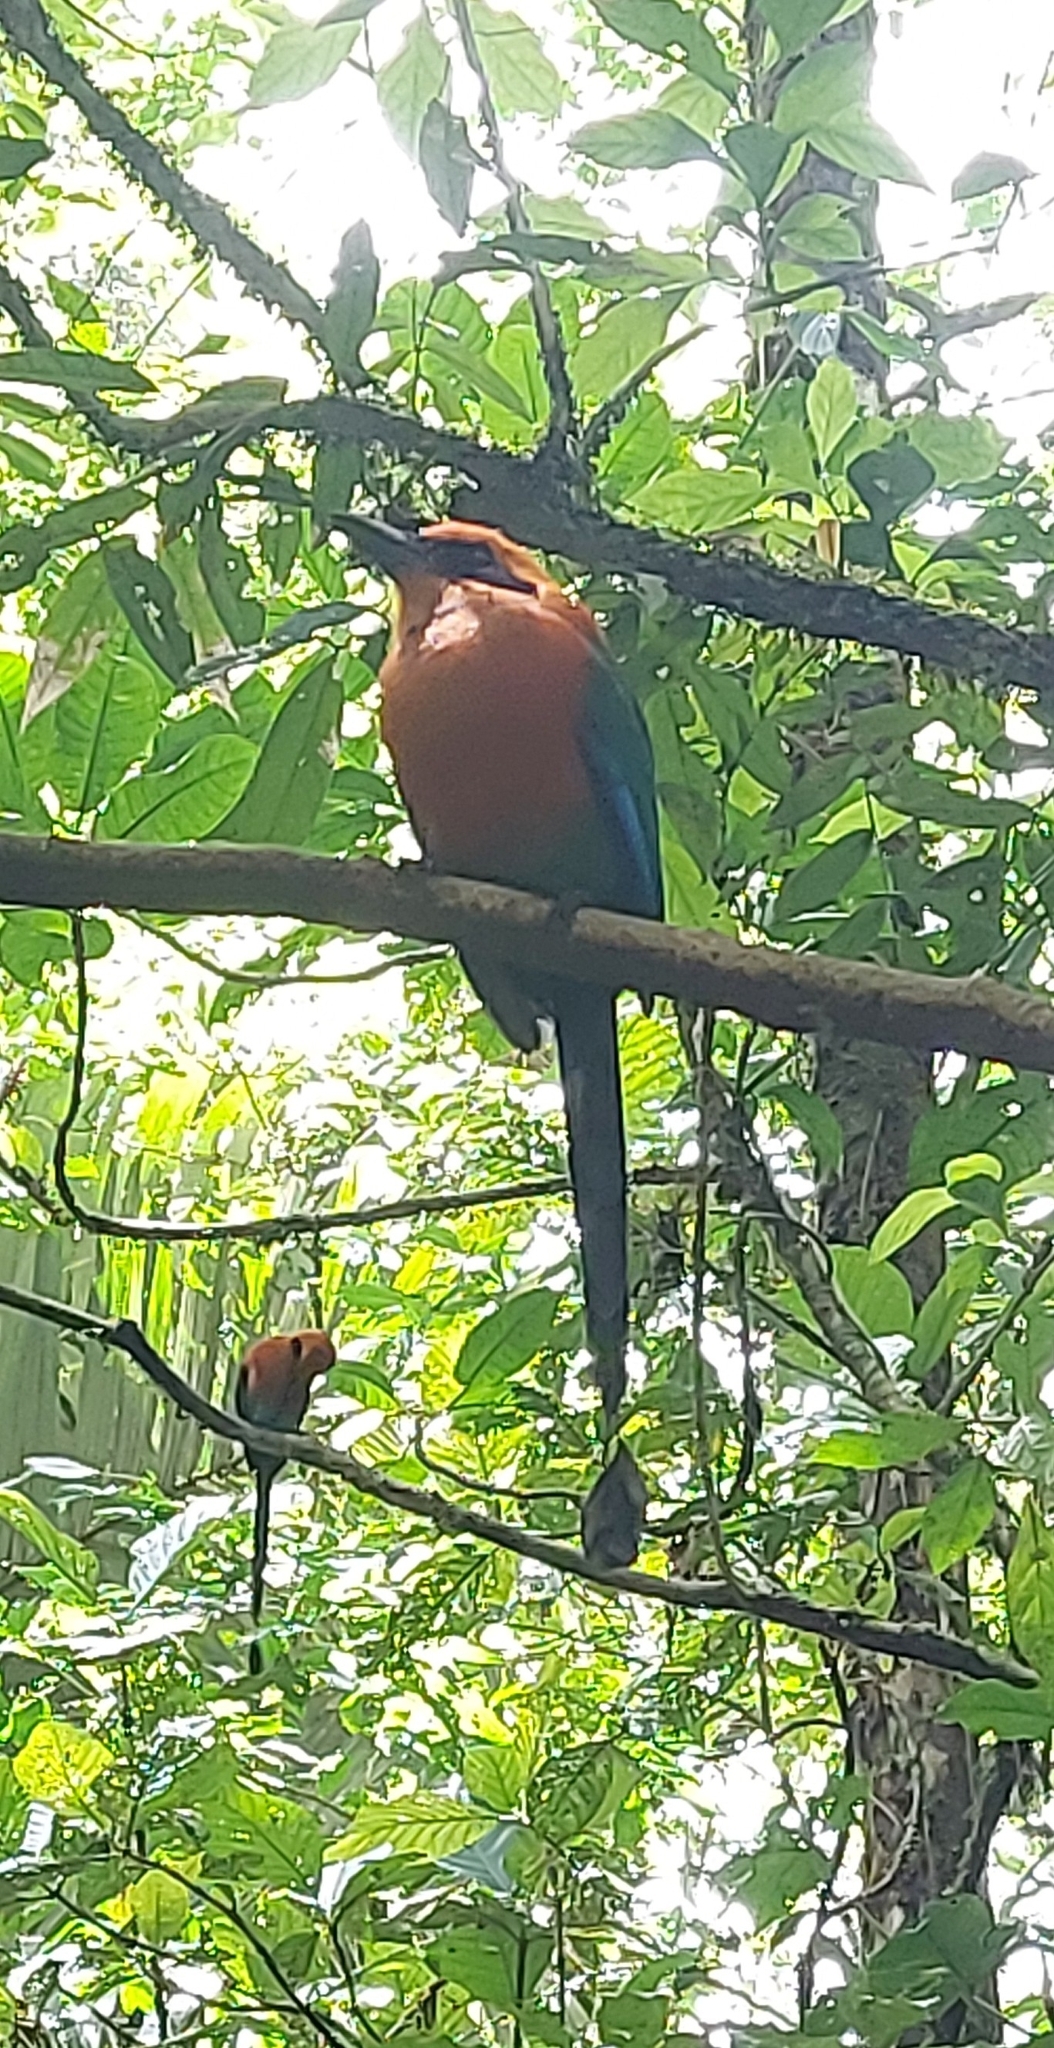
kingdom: Animalia
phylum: Chordata
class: Aves
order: Coraciiformes
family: Momotidae
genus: Baryphthengus
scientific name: Baryphthengus martii
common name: Rufous motmot
